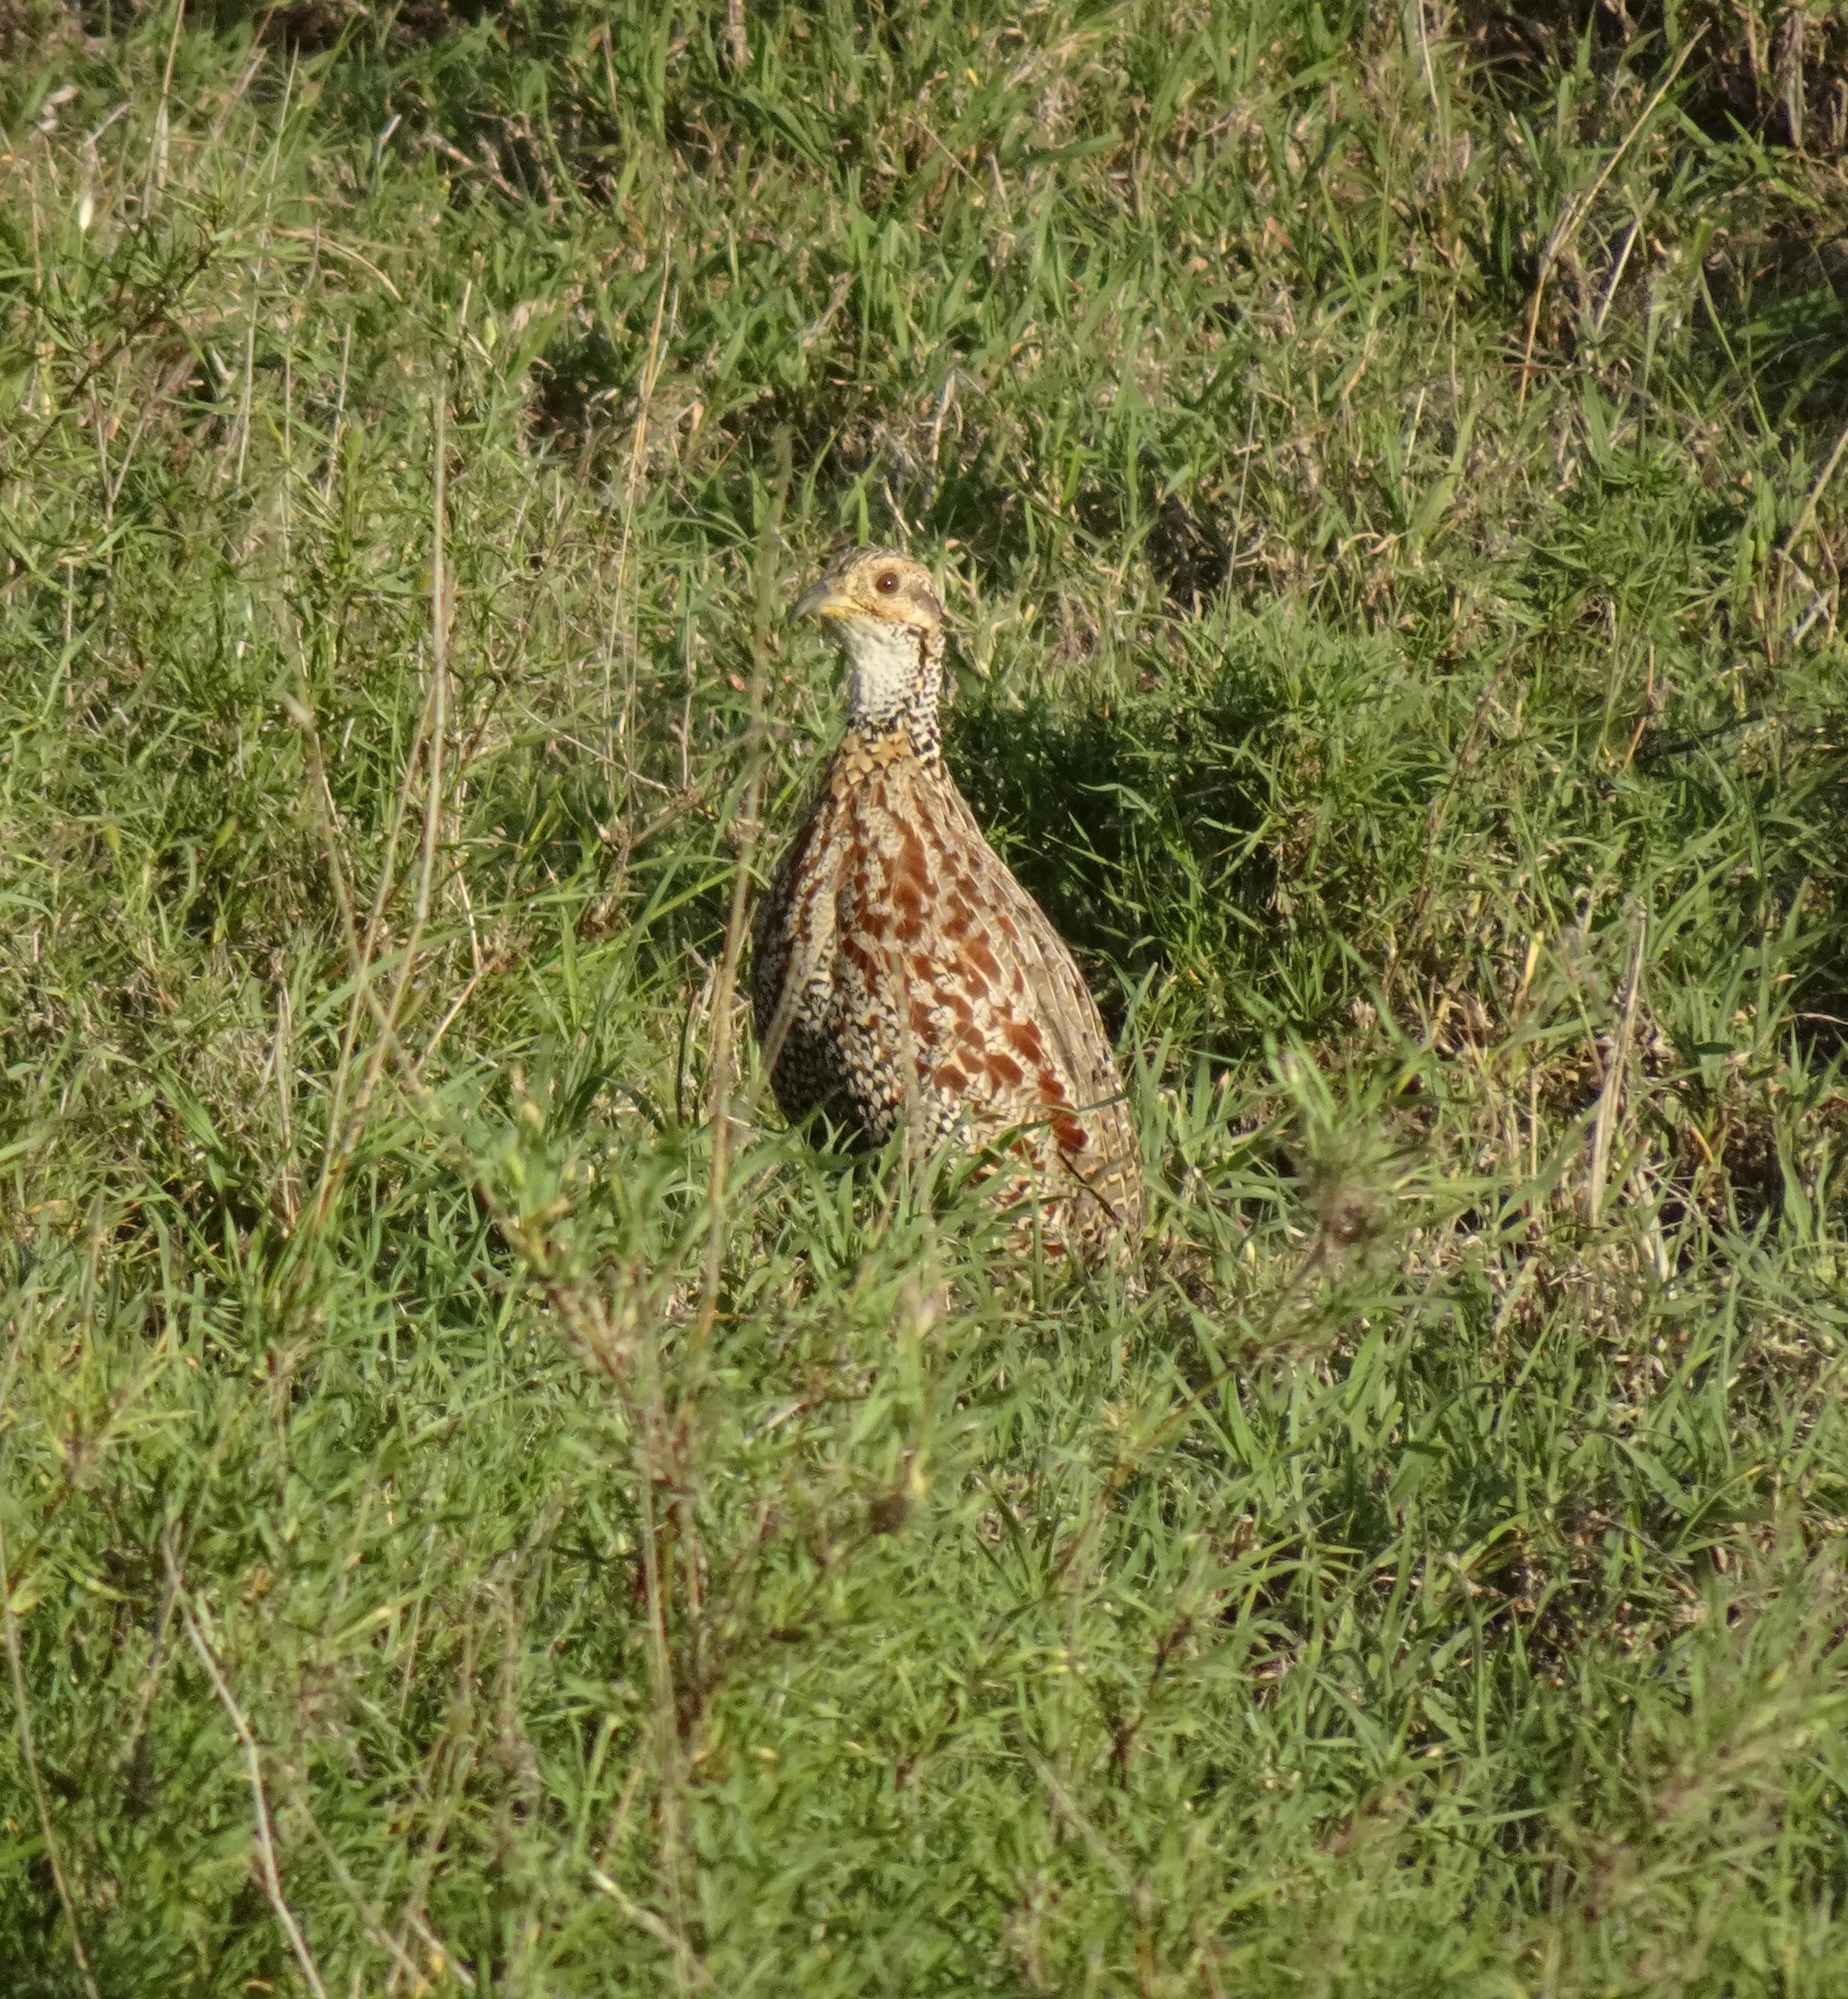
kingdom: Animalia
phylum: Chordata
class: Aves
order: Galliformes
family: Phasianidae
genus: Scleroptila
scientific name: Scleroptila shelleyi
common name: Shelley's francolin
